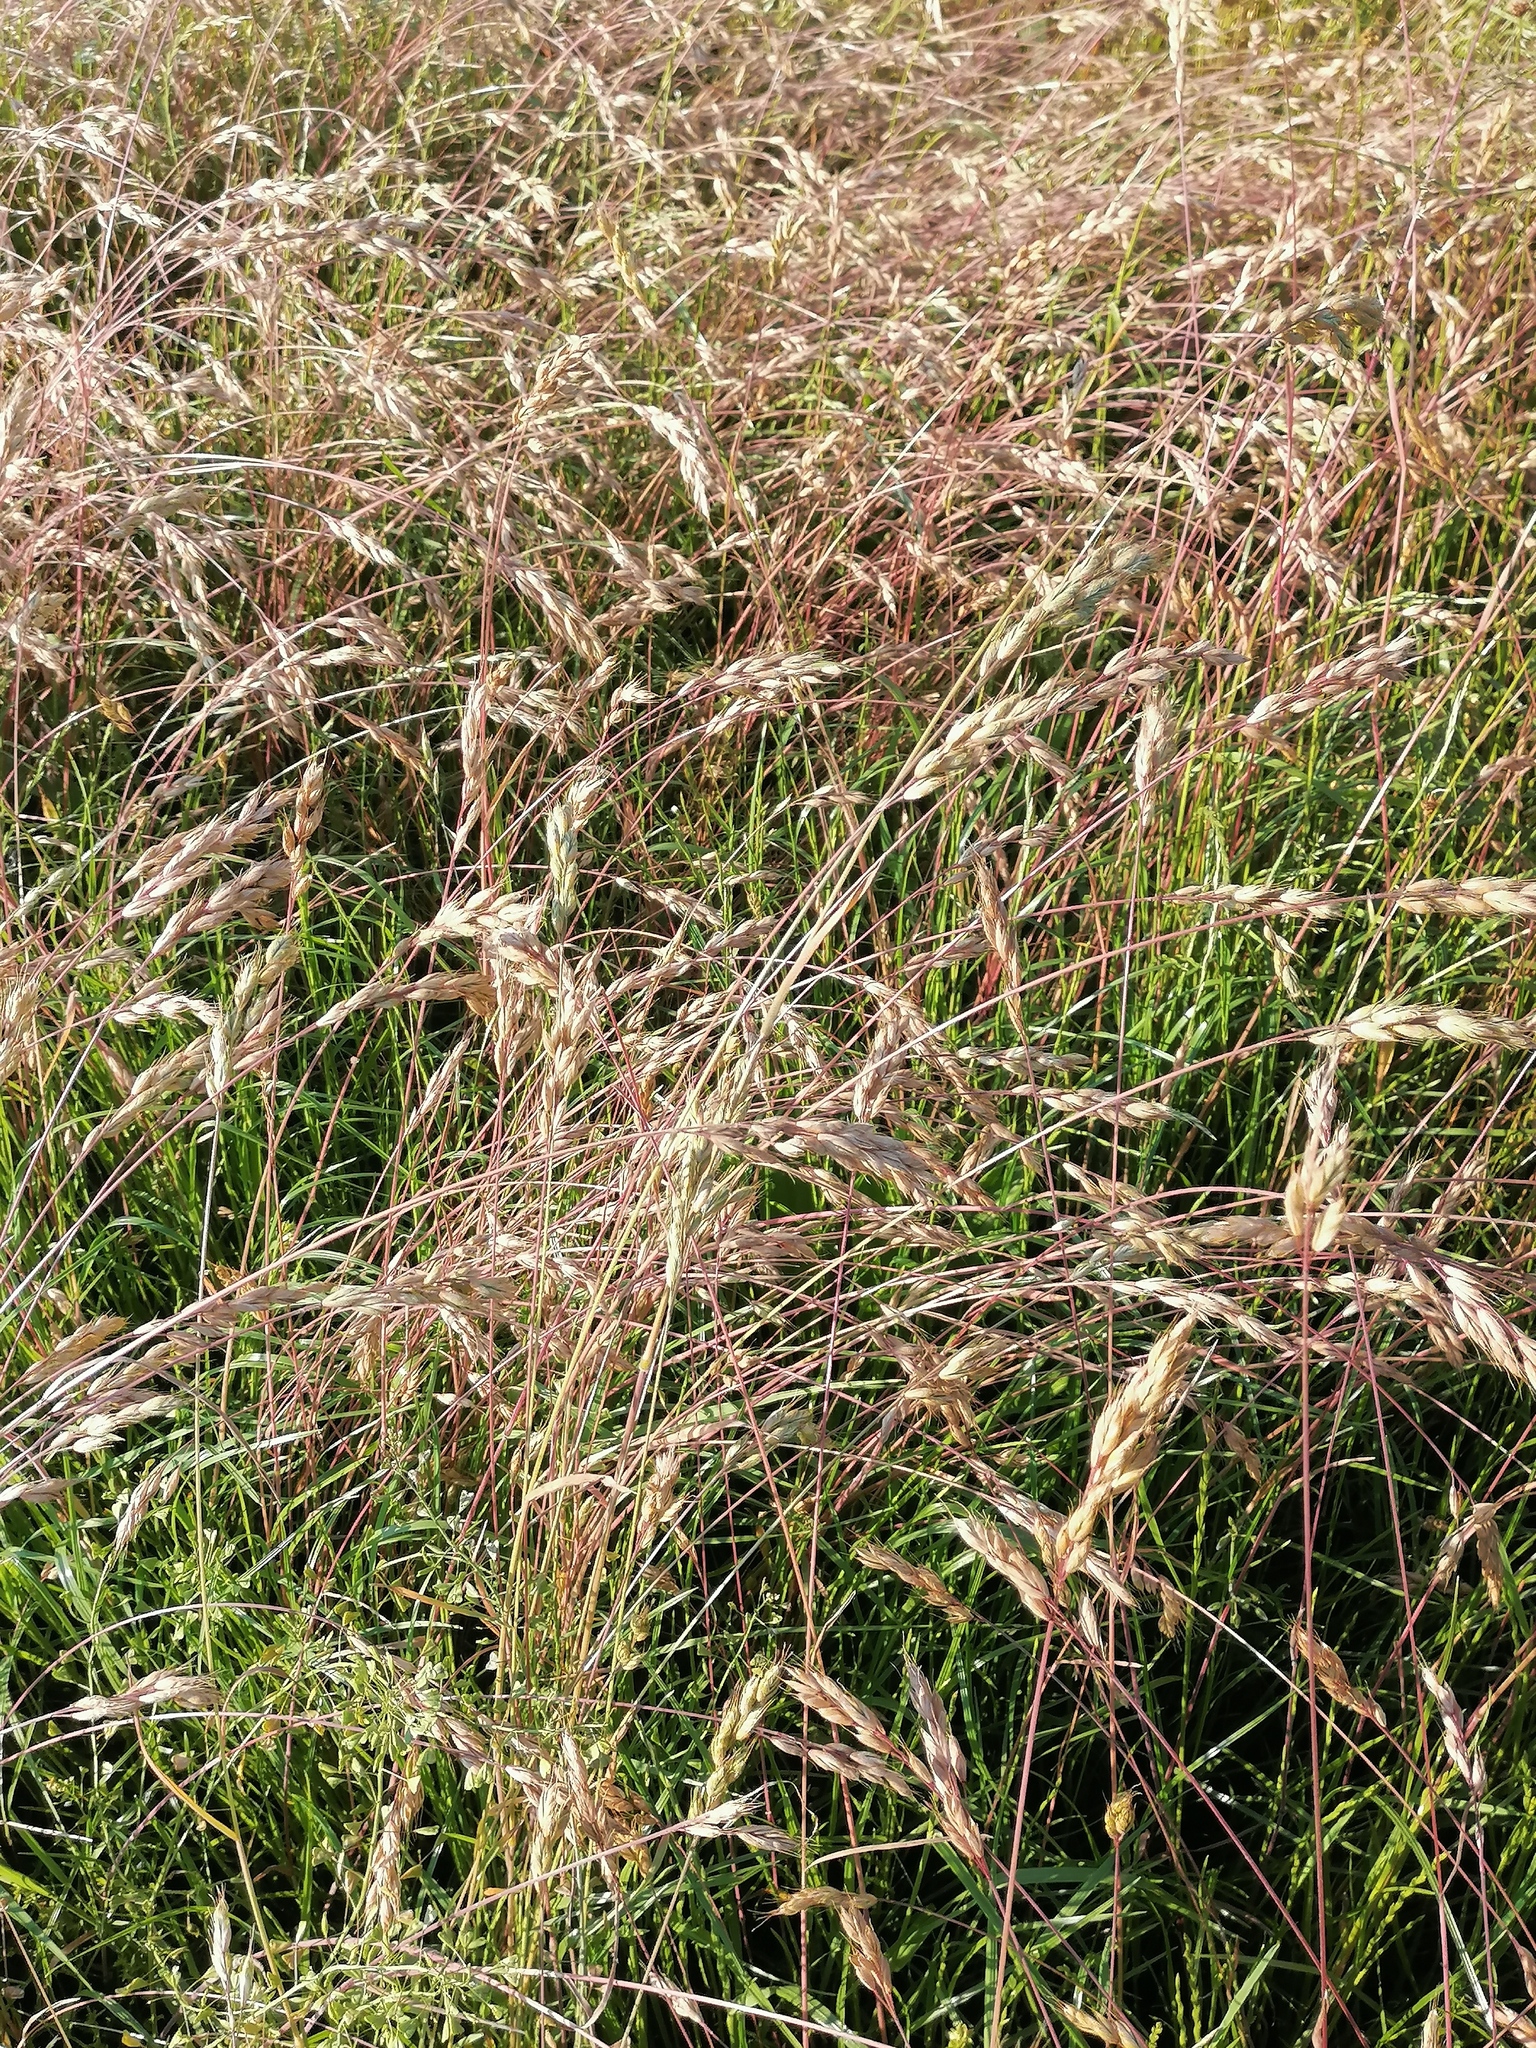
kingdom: Plantae
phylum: Tracheophyta
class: Liliopsida
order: Poales
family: Poaceae
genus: Bromus
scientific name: Bromus hordeaceus
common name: Soft brome
